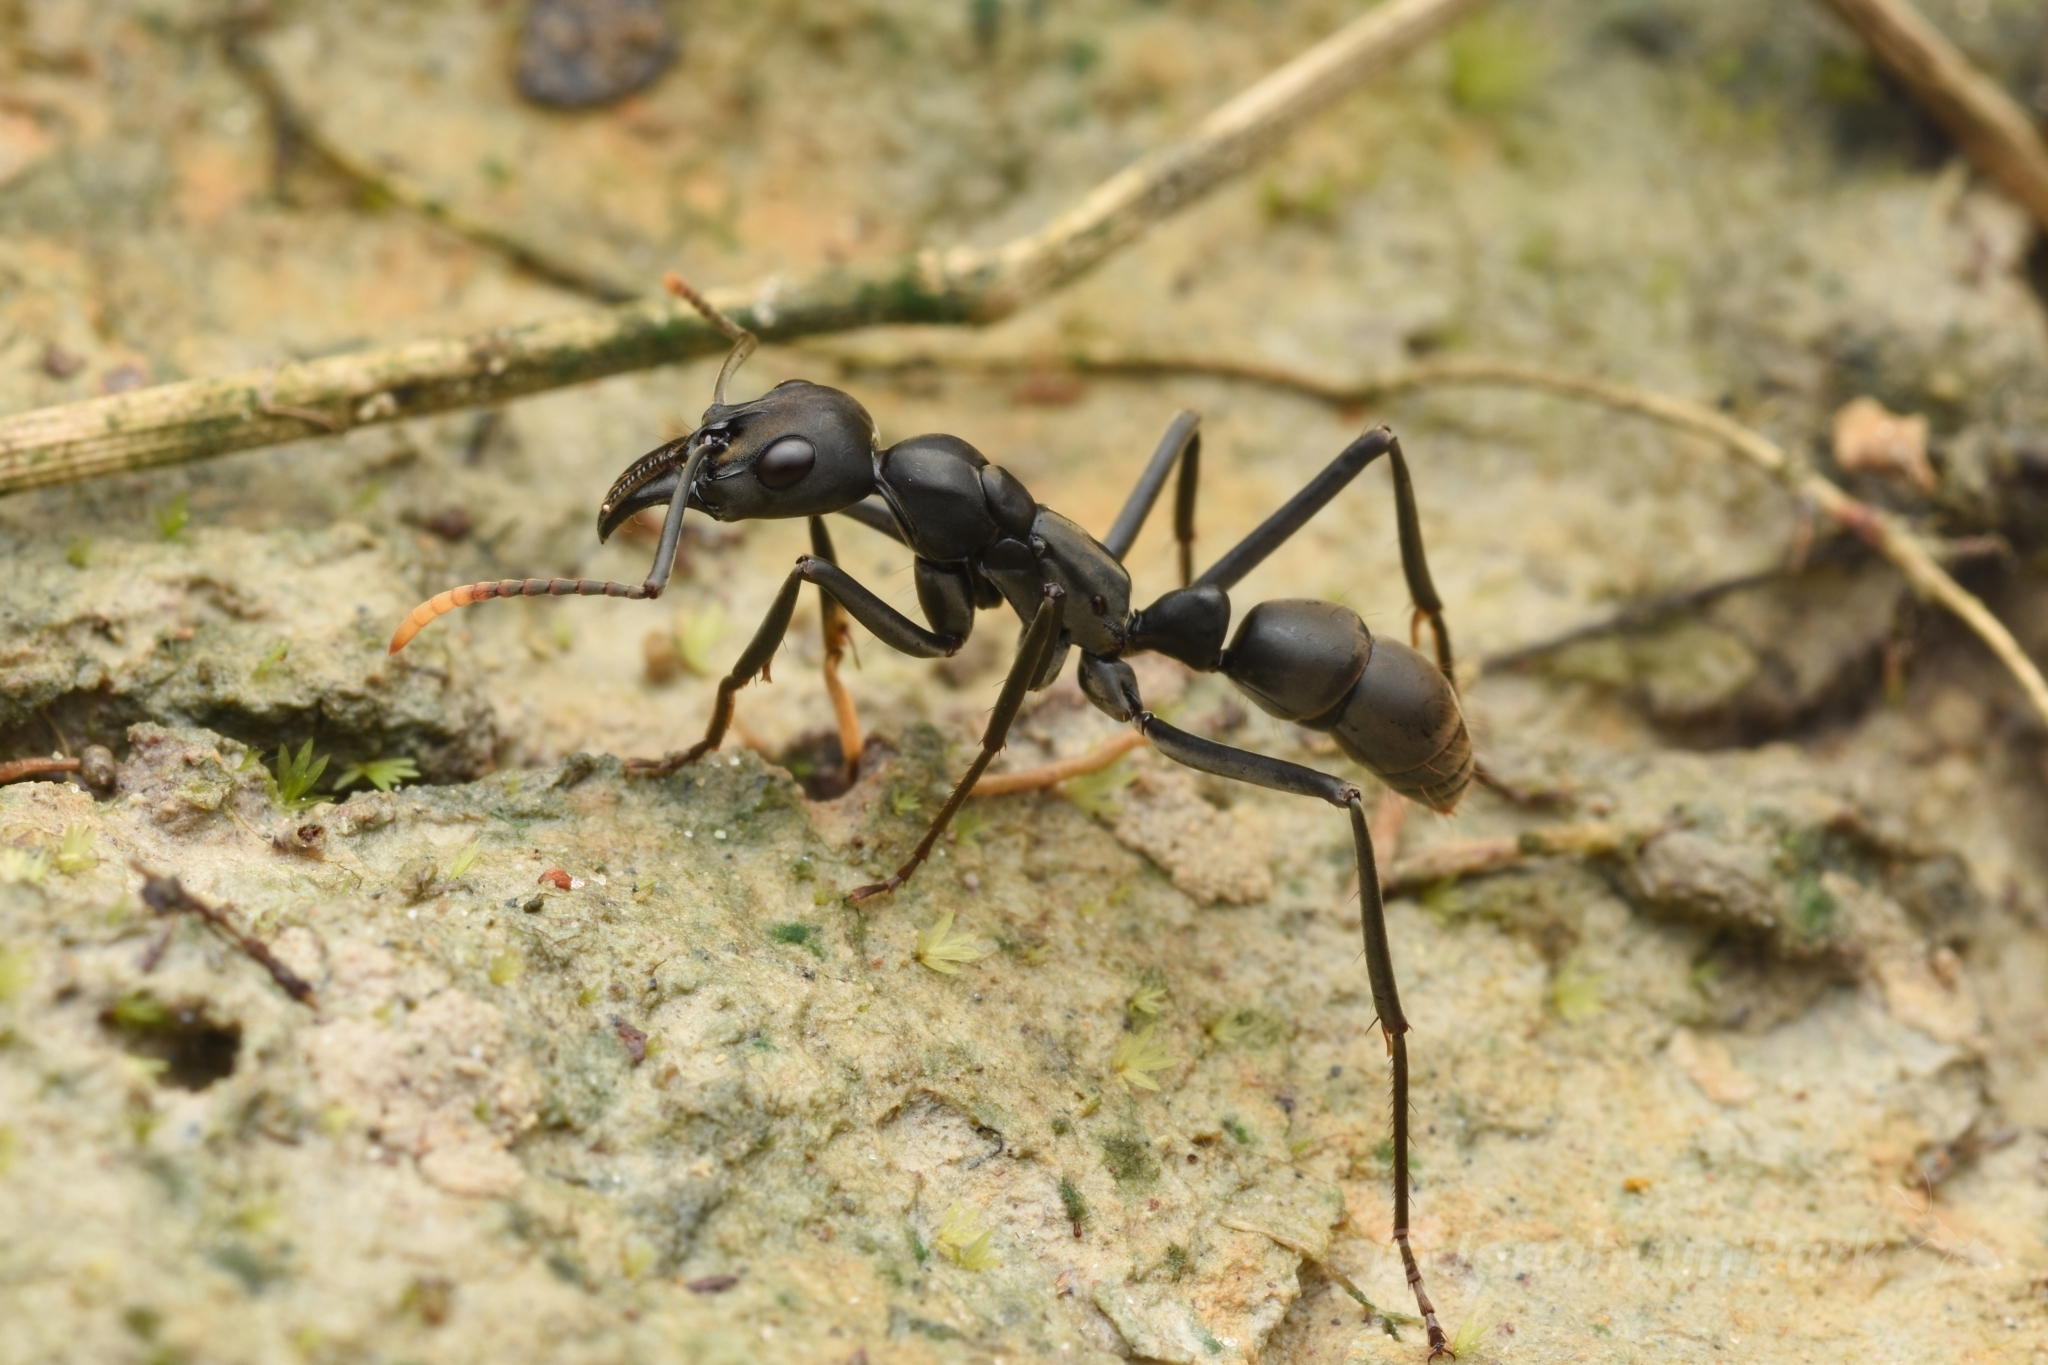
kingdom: Animalia
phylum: Arthropoda
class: Insecta
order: Hymenoptera
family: Formicidae
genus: Pachycondyla
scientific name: Pachycondyla apicalis
